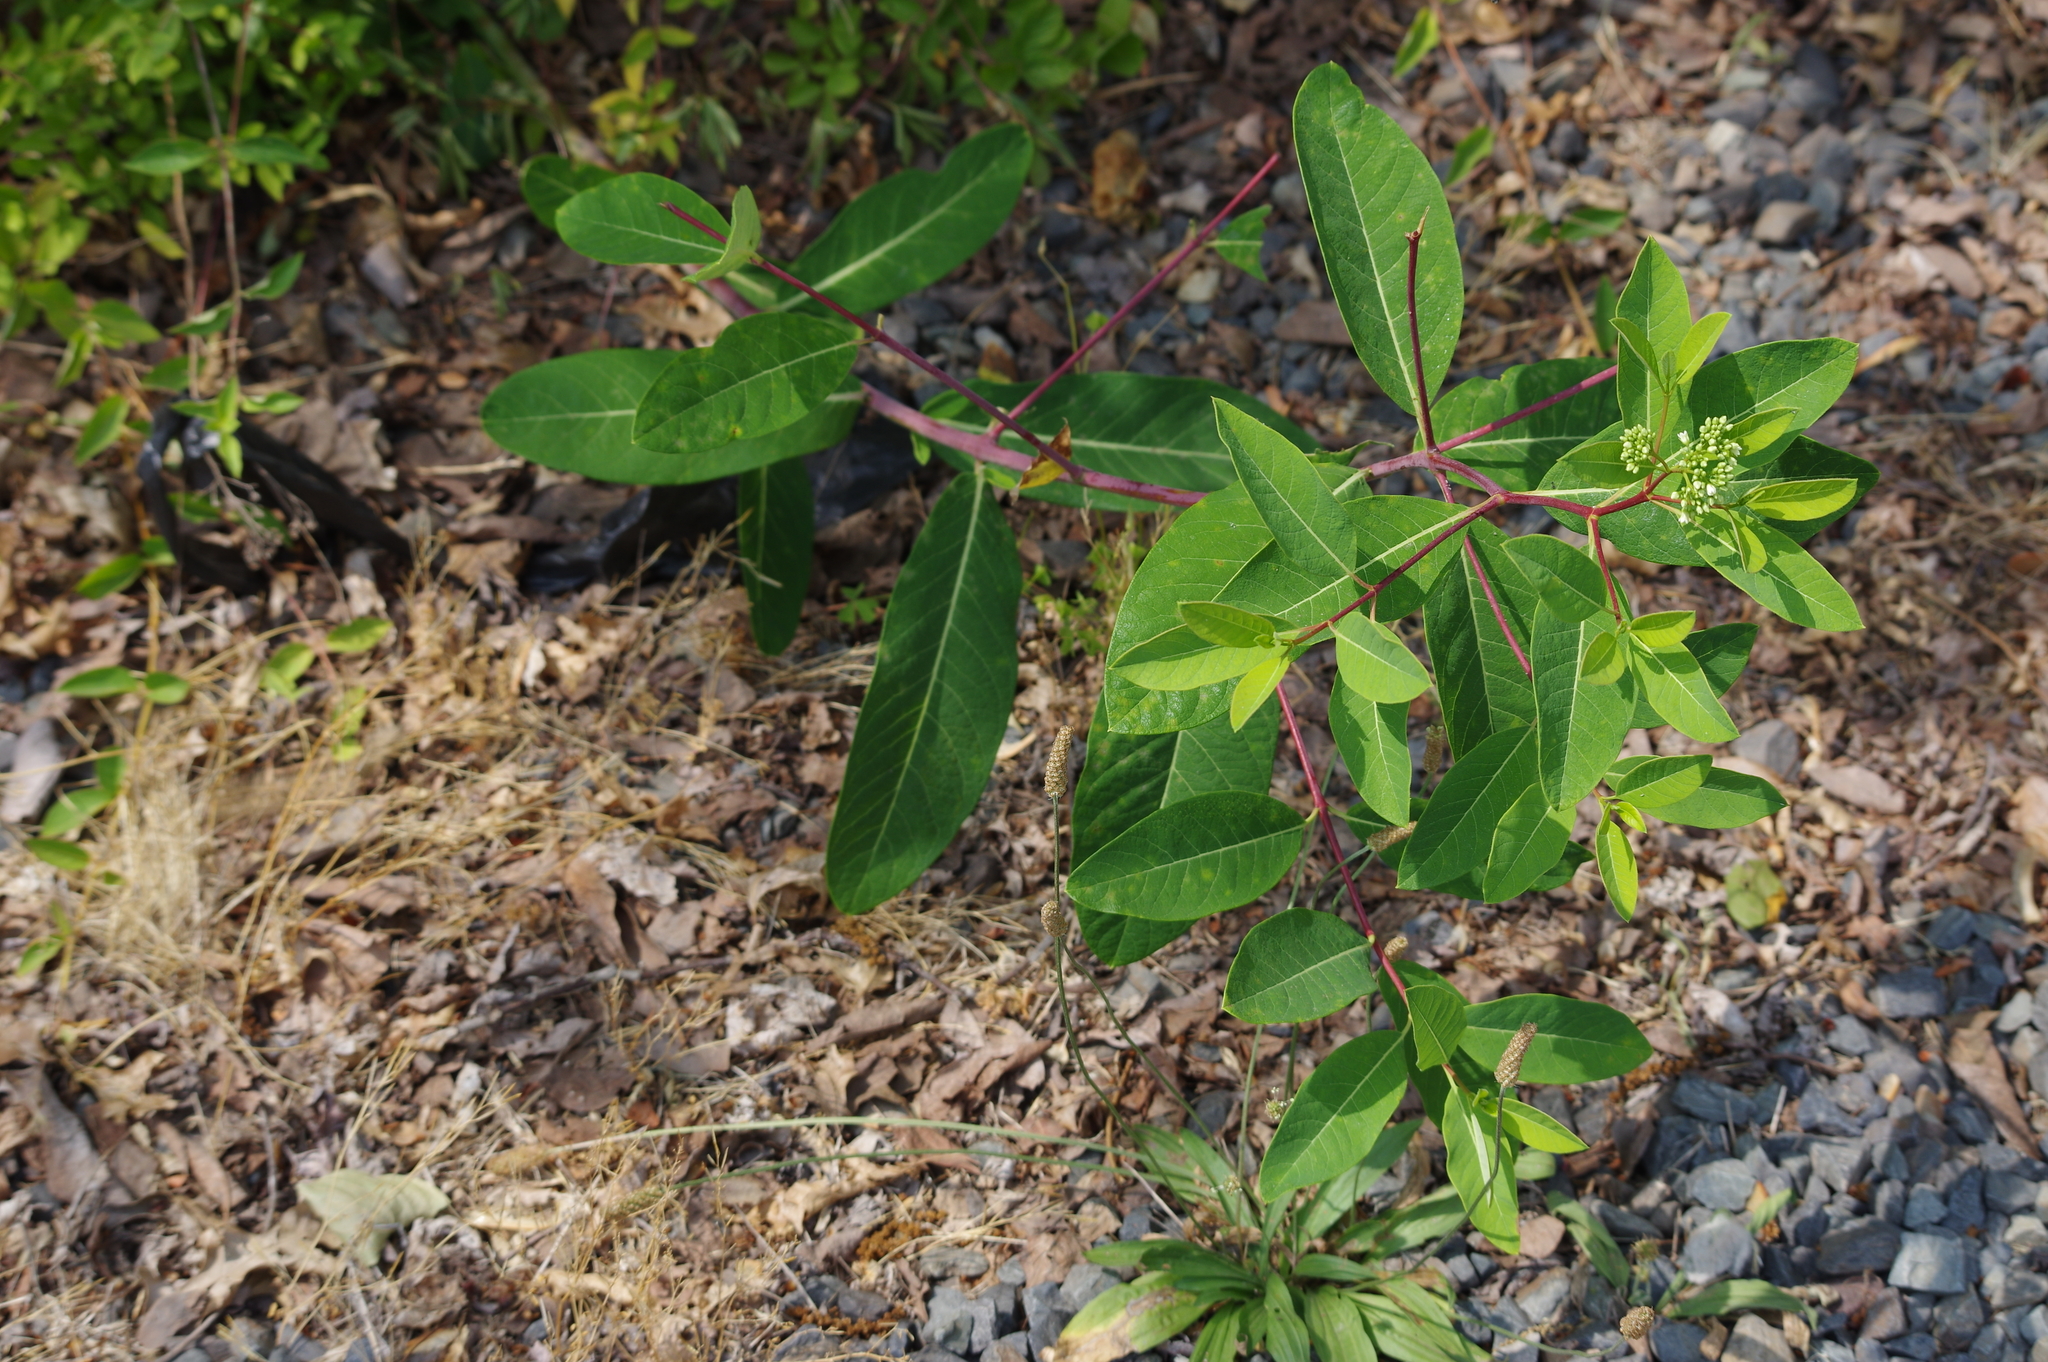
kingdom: Plantae
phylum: Tracheophyta
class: Magnoliopsida
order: Gentianales
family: Apocynaceae
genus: Apocynum
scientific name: Apocynum cannabinum
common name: Hemp dogbane
